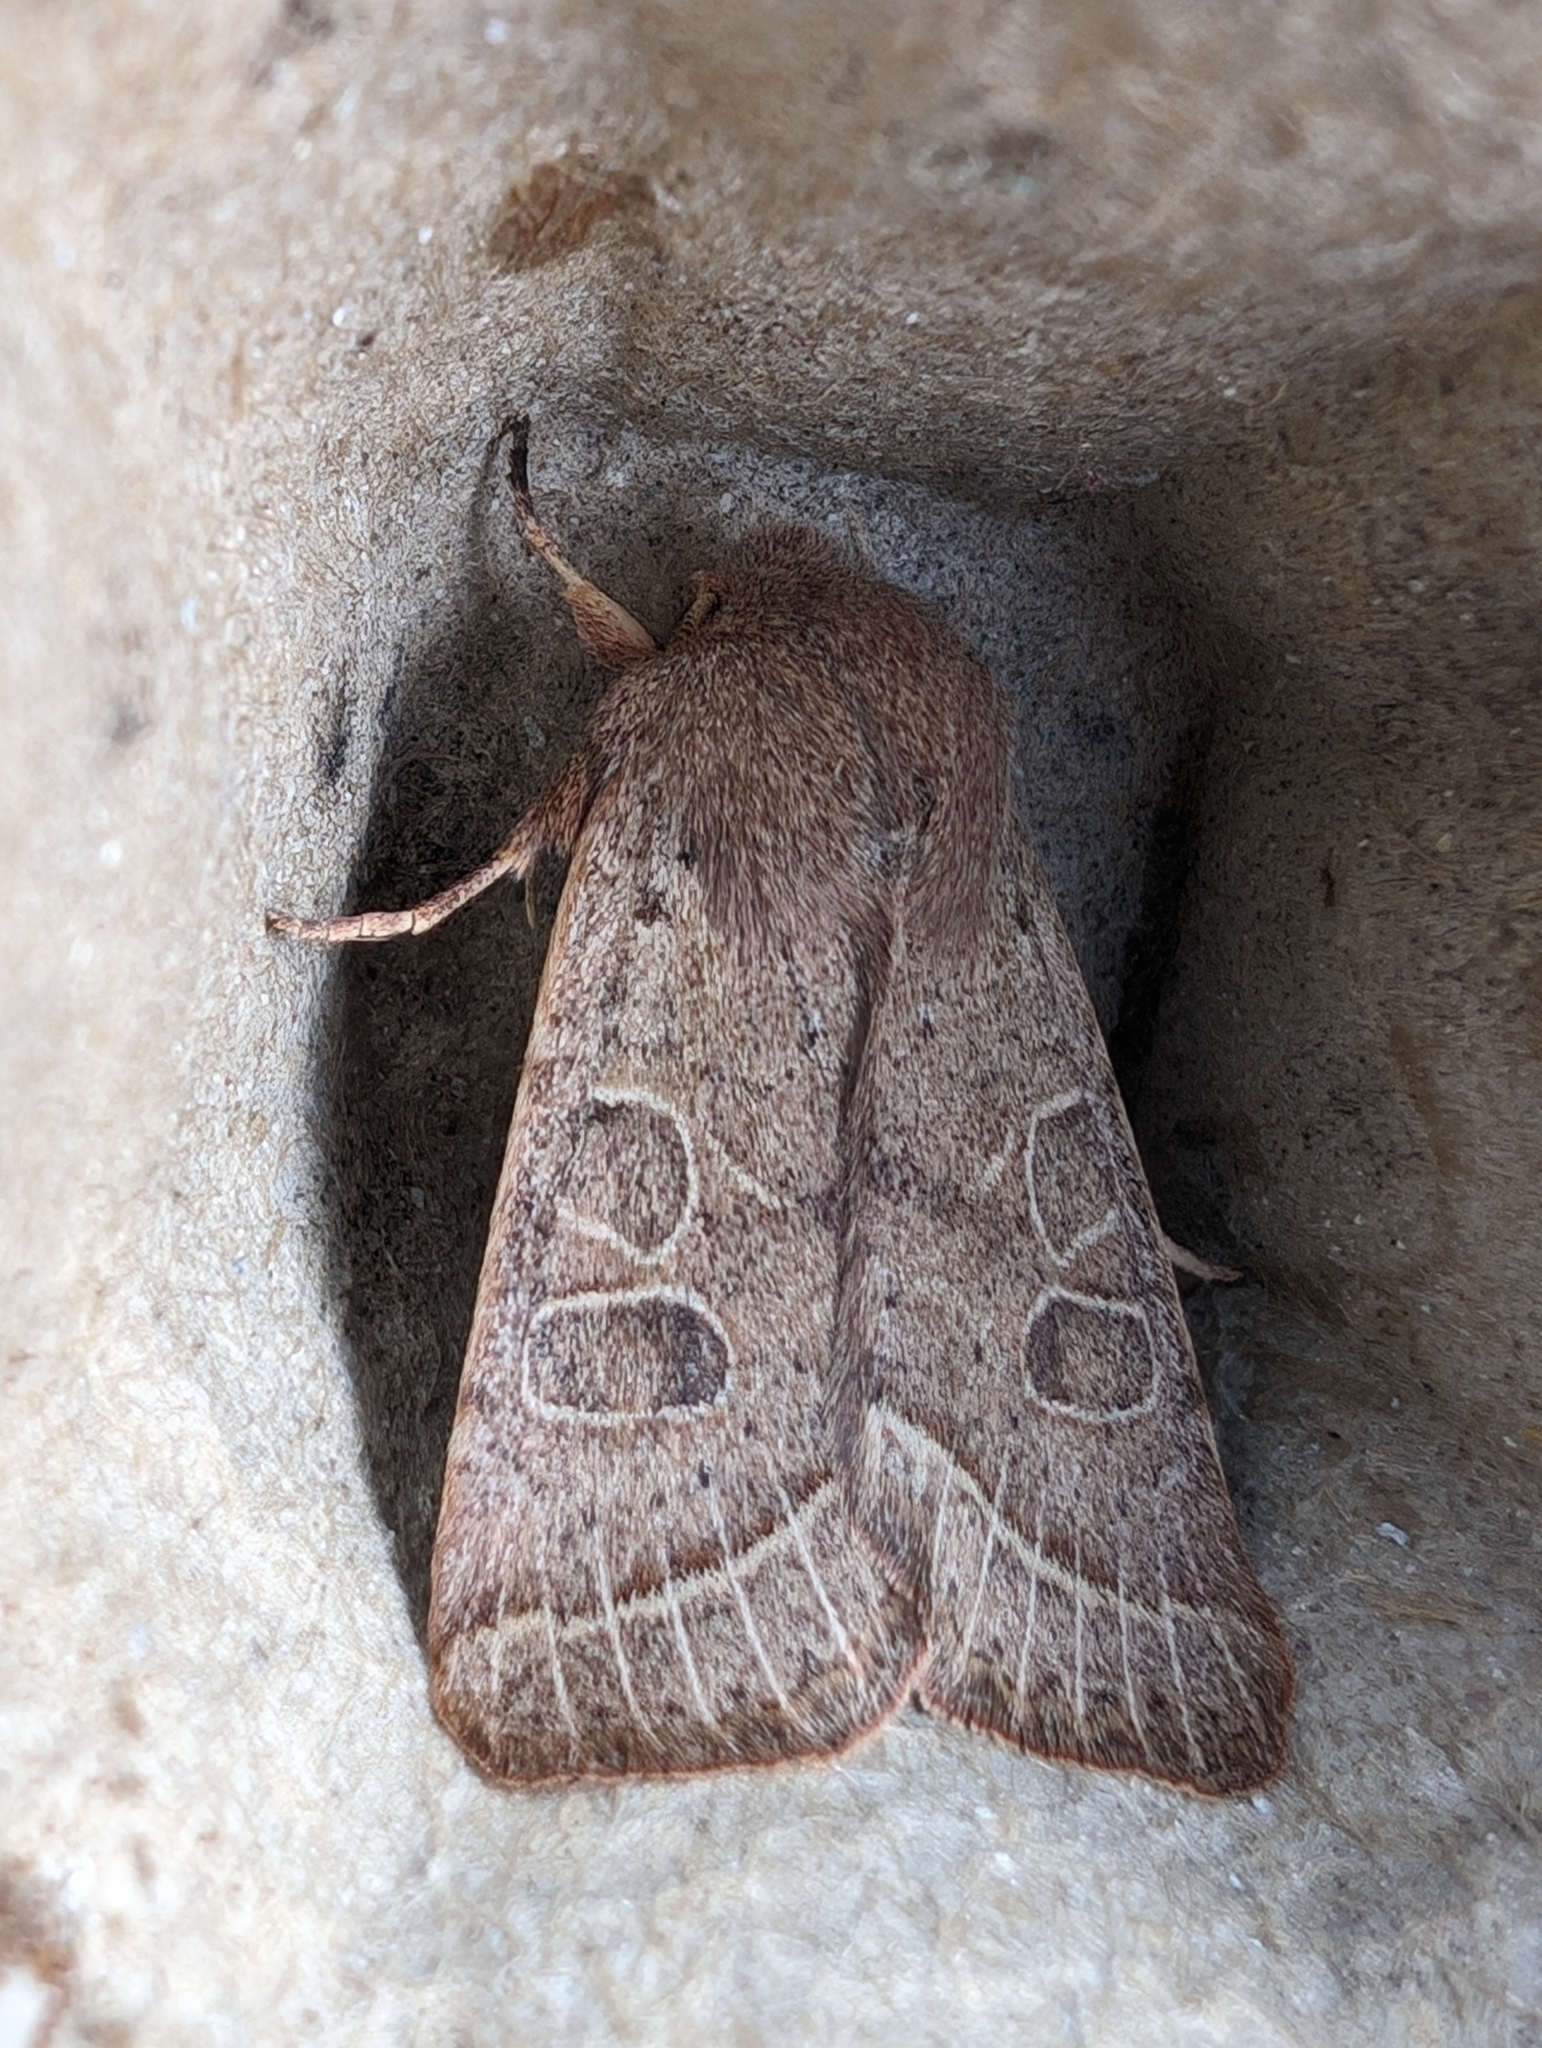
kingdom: Animalia
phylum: Arthropoda
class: Insecta
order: Lepidoptera
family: Noctuidae
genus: Orthosia
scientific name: Orthosia cerasi
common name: Common quaker
